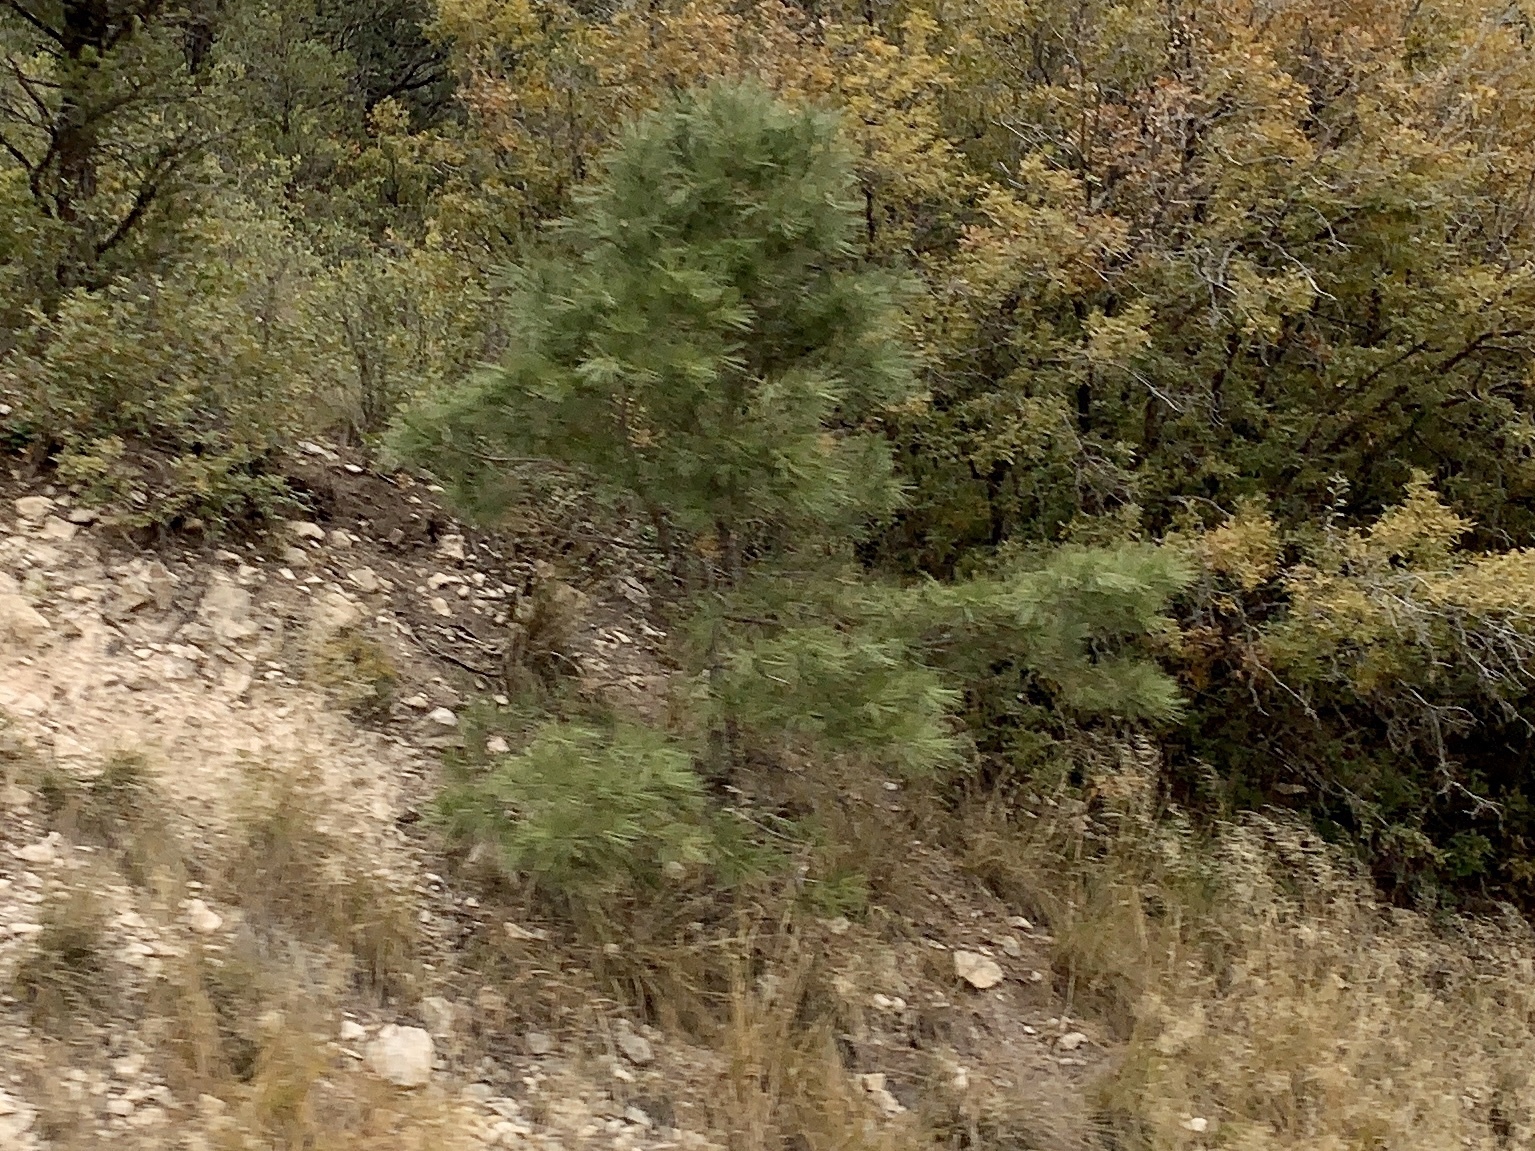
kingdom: Plantae
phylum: Tracheophyta
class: Pinopsida
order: Pinales
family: Pinaceae
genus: Pinus
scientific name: Pinus ponderosa
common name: Western yellow-pine
